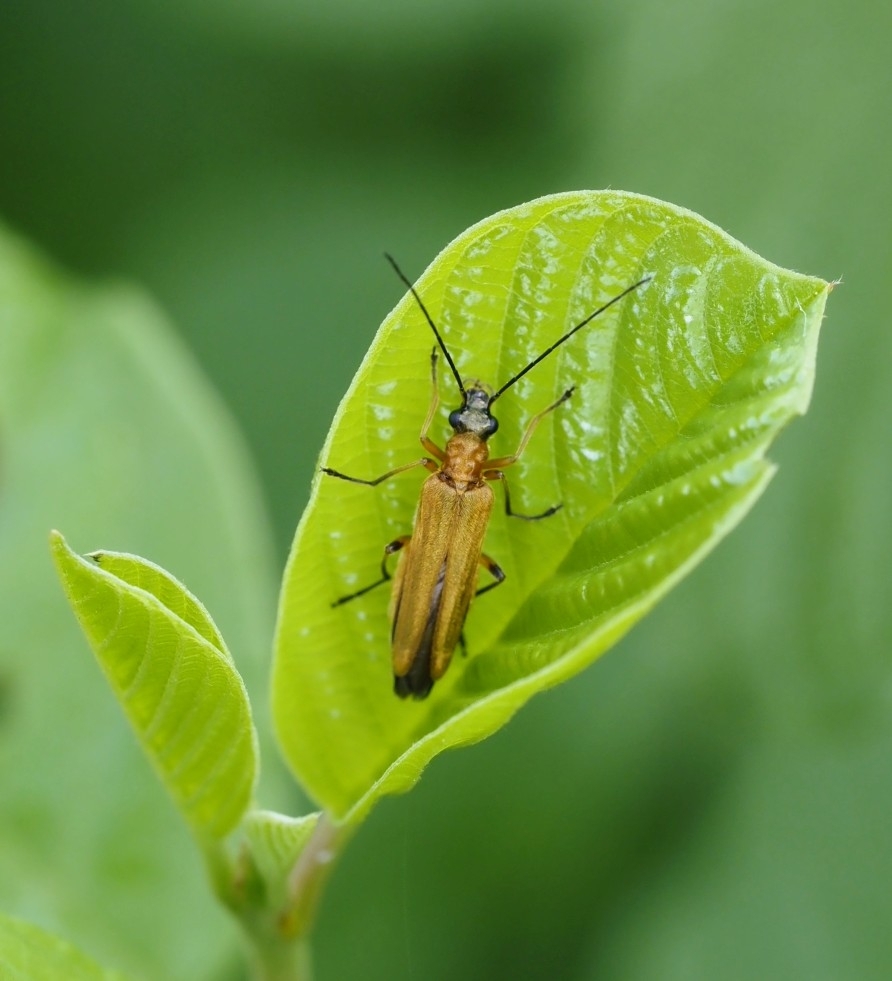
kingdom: Animalia
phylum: Arthropoda
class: Insecta
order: Coleoptera
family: Oedemeridae
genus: Oedemera
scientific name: Oedemera podagrariae
